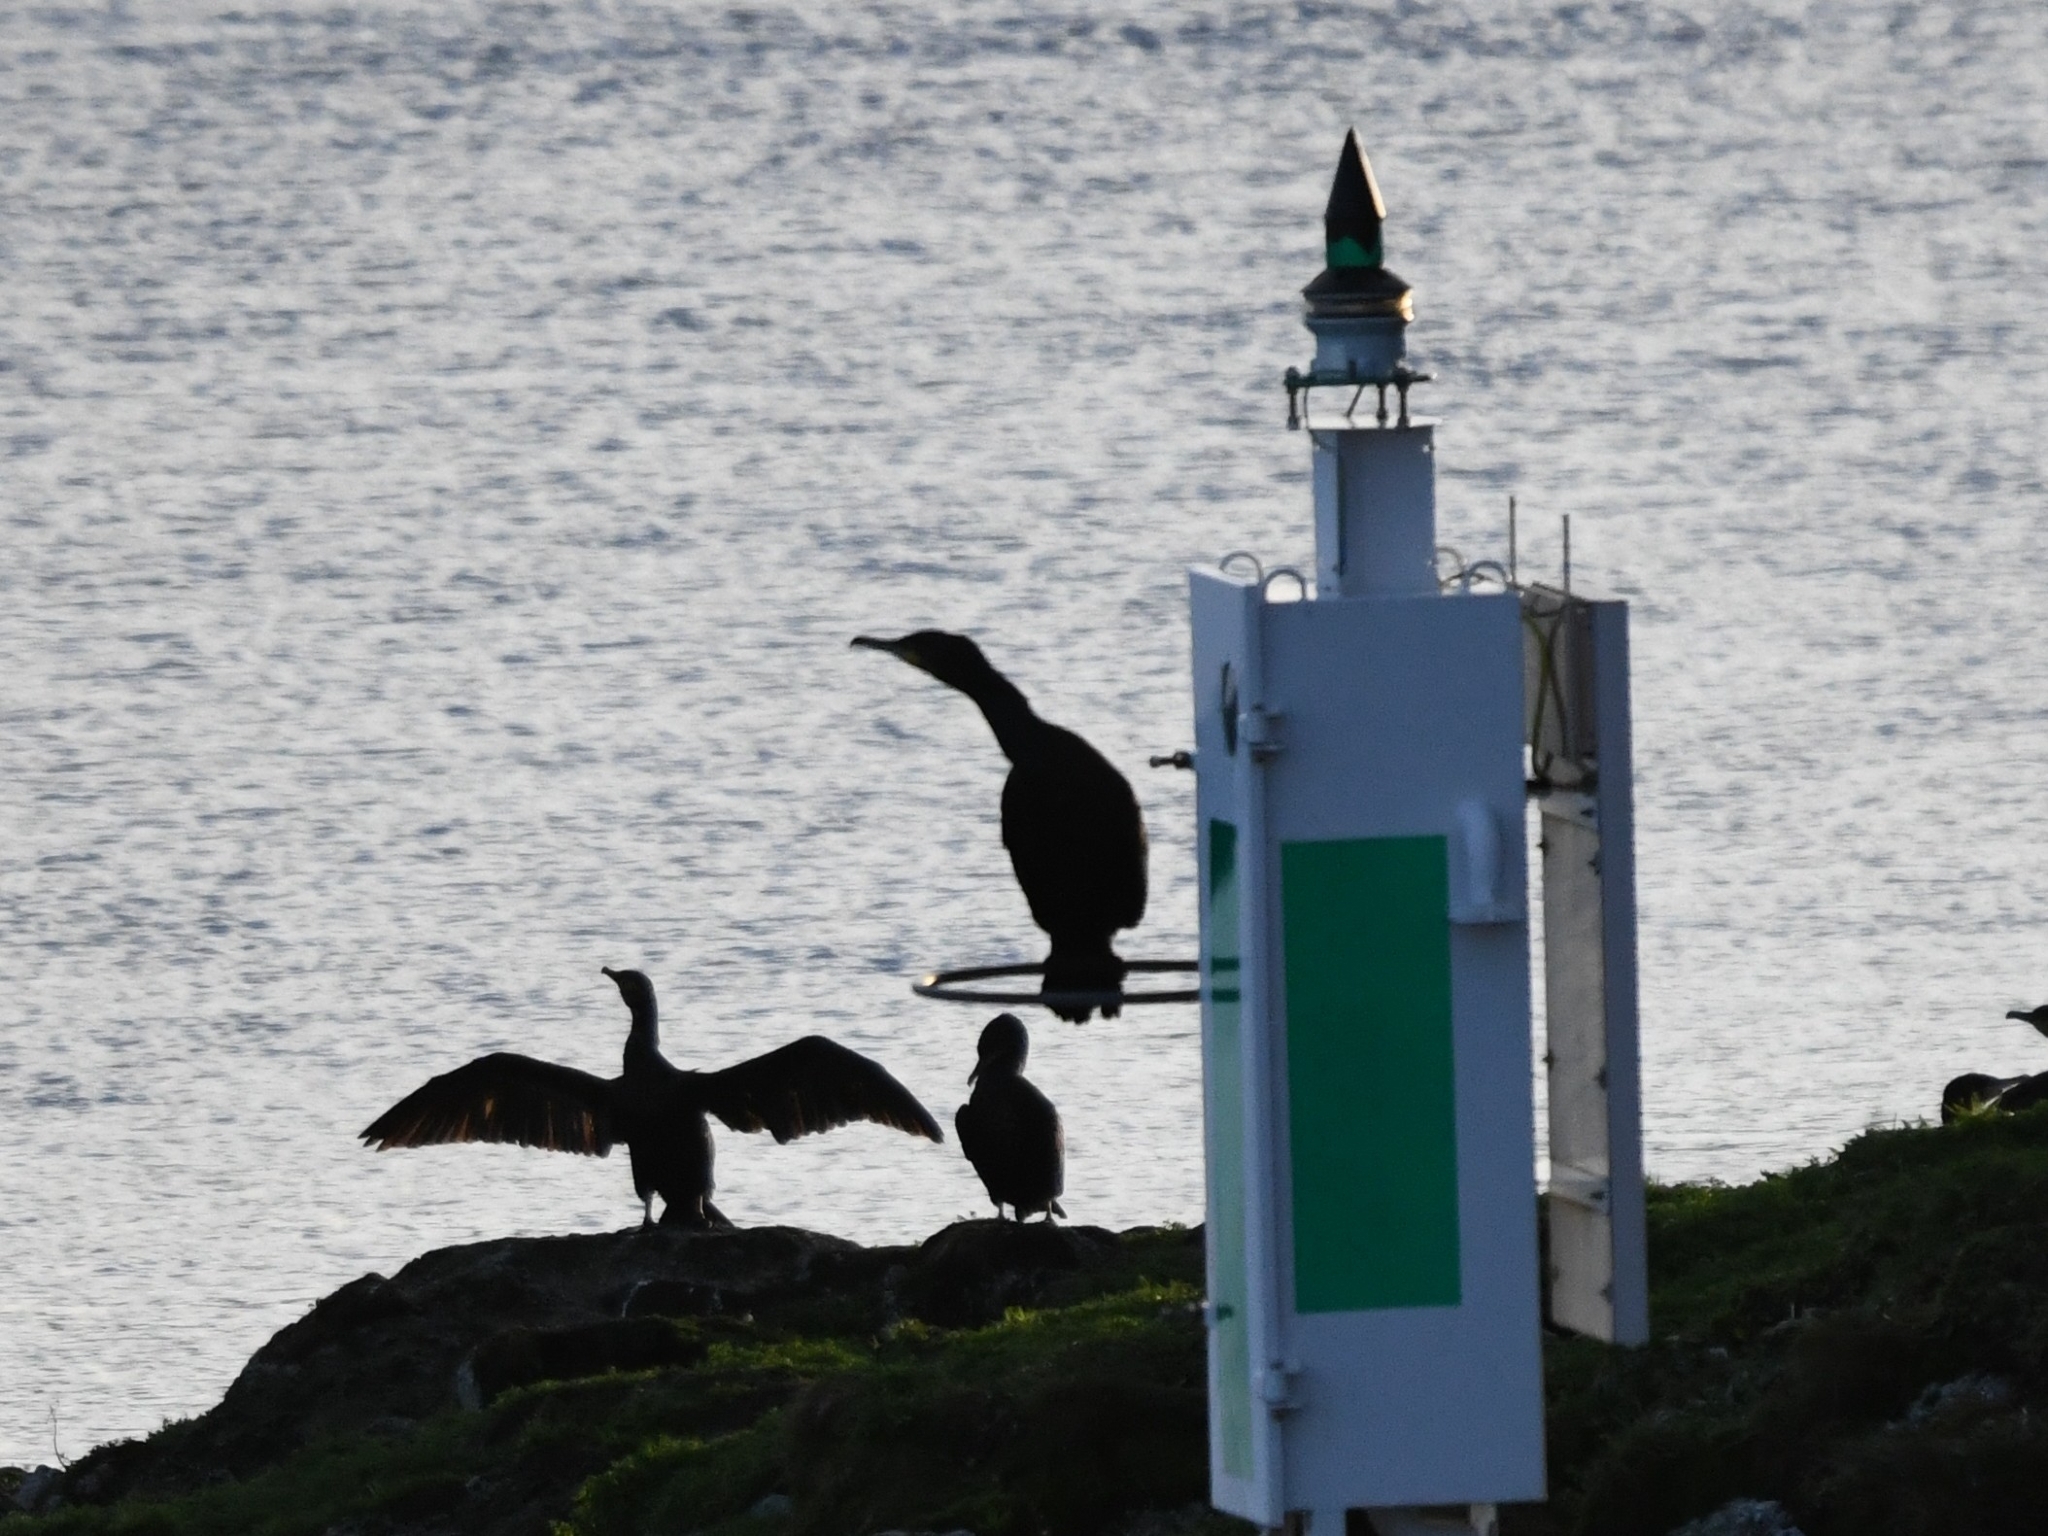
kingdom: Animalia
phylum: Chordata
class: Aves
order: Suliformes
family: Phalacrocoracidae
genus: Phalacrocorax
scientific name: Phalacrocorax carbo
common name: Great cormorant
